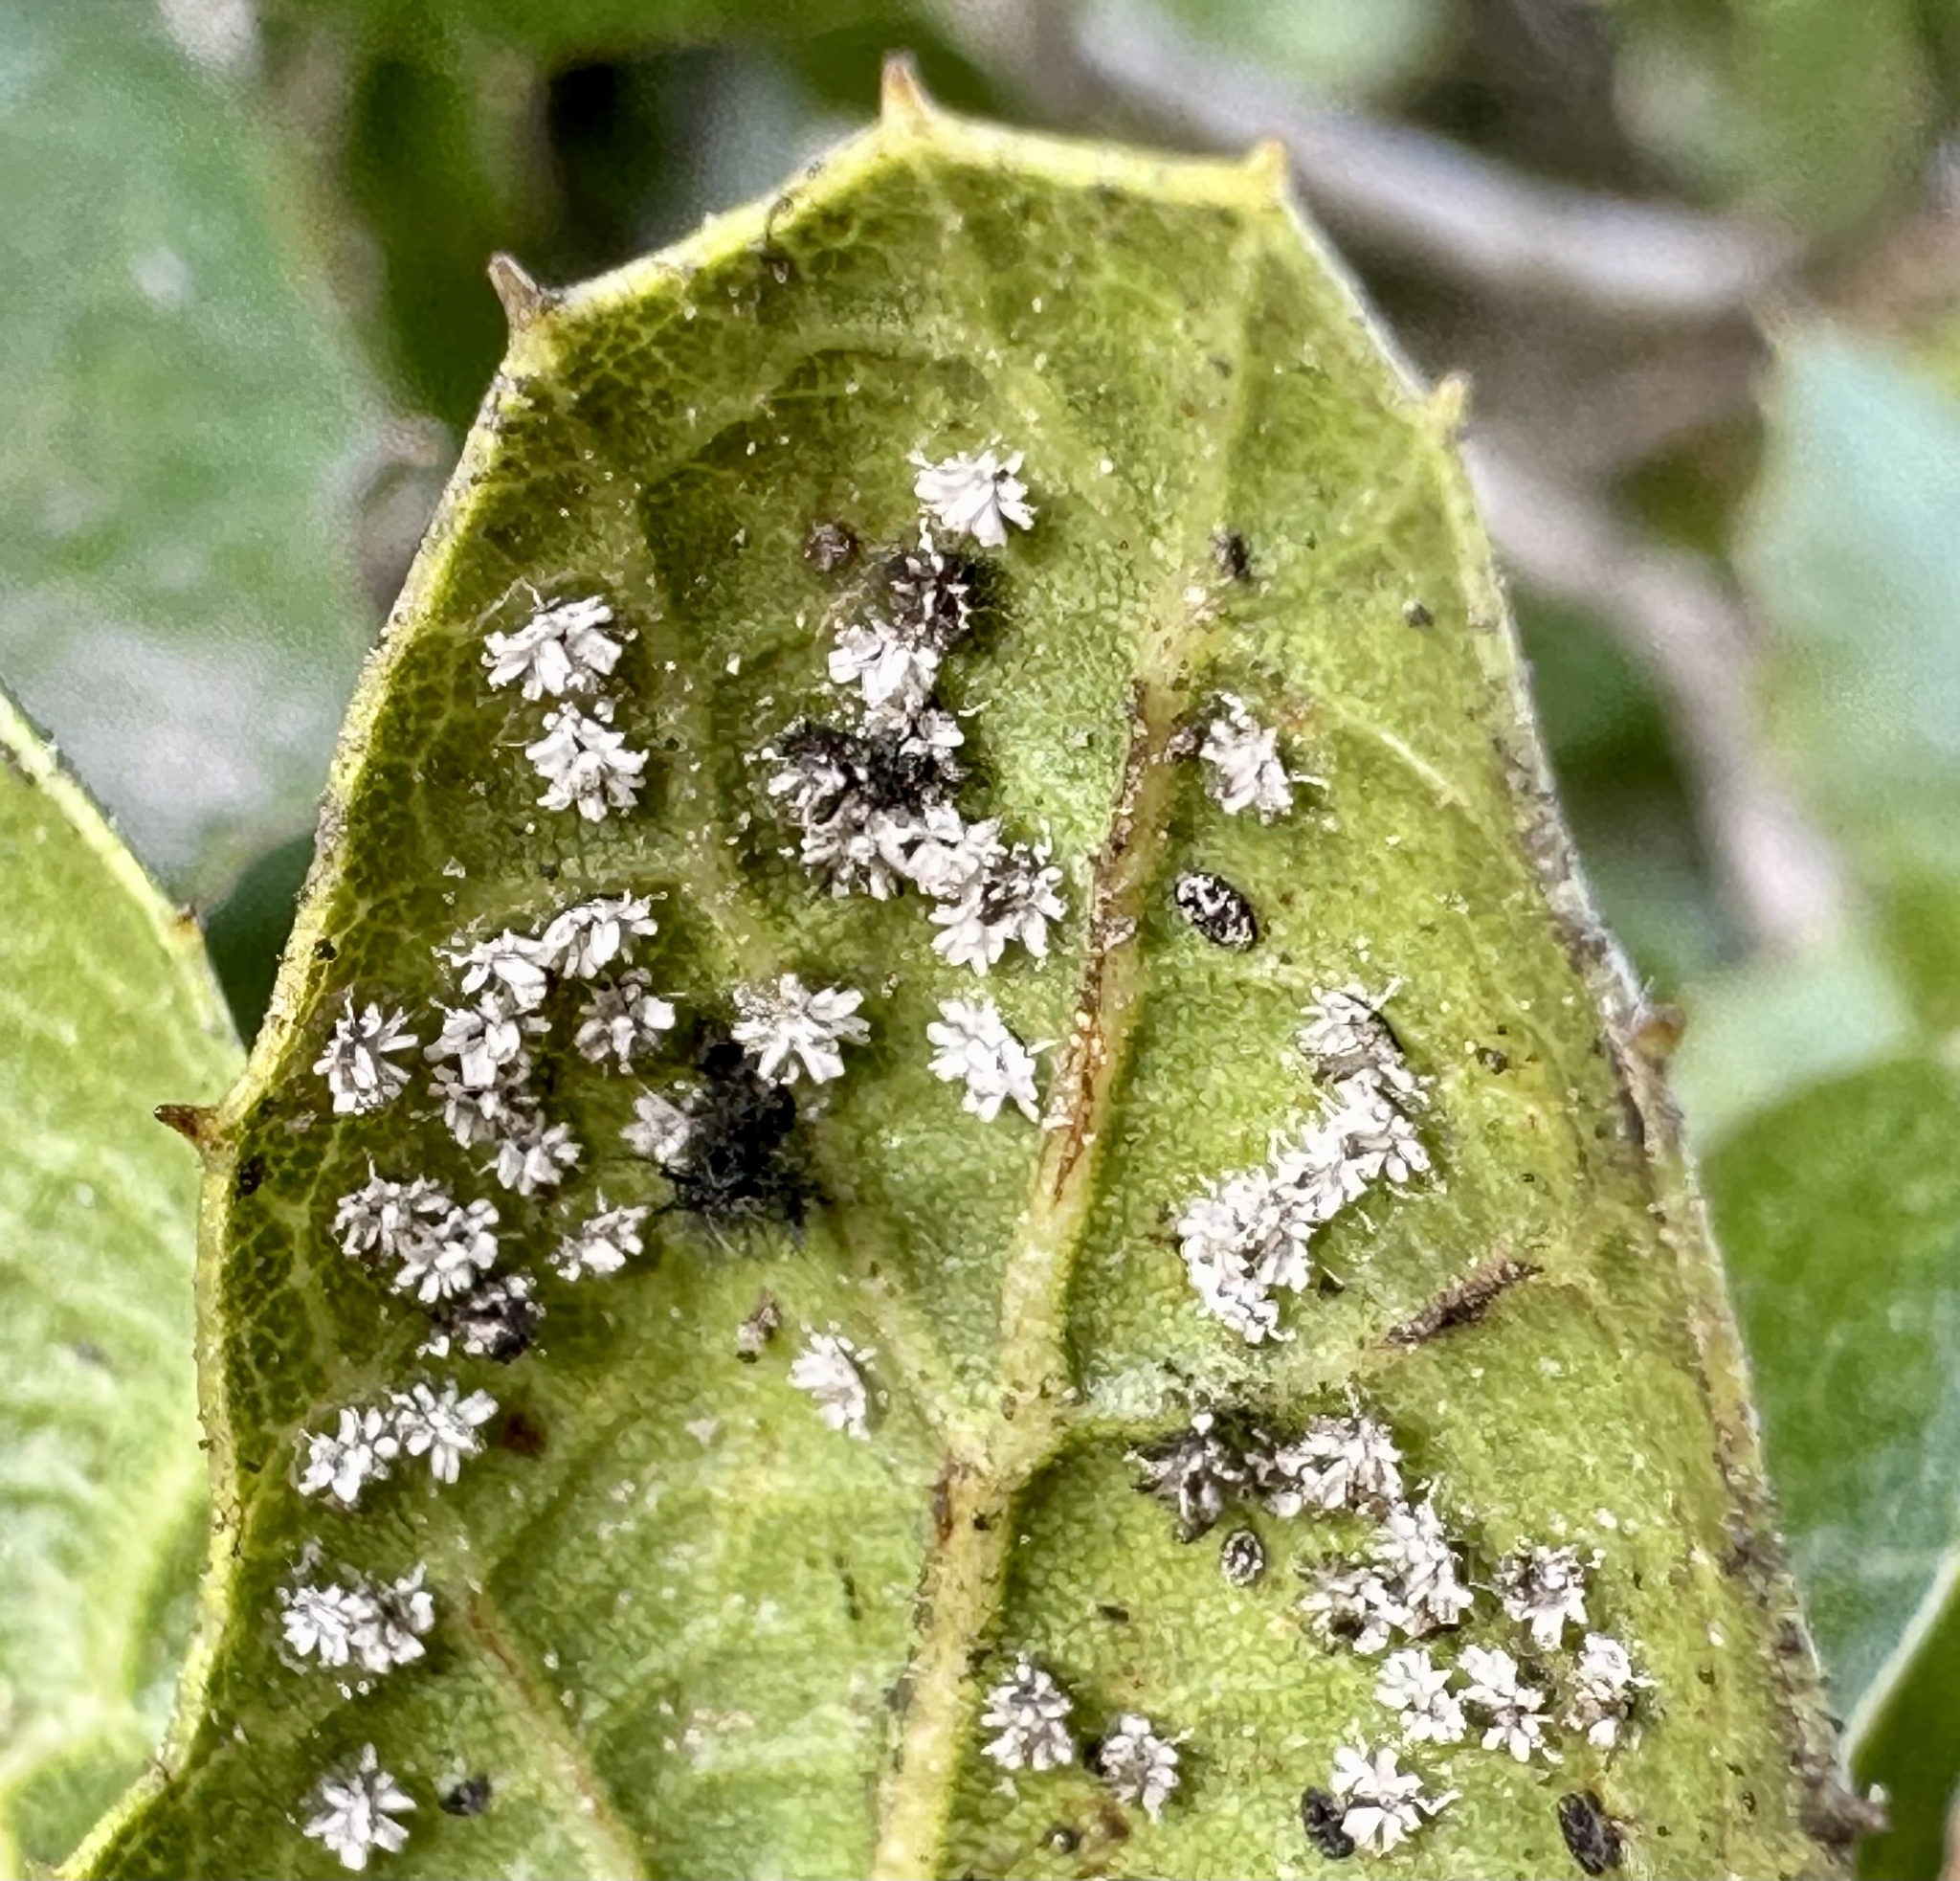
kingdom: Animalia
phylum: Arthropoda
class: Insecta
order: Hemiptera
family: Aleyrodidae
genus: Aleuroplatus
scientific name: Aleuroplatus coronata
